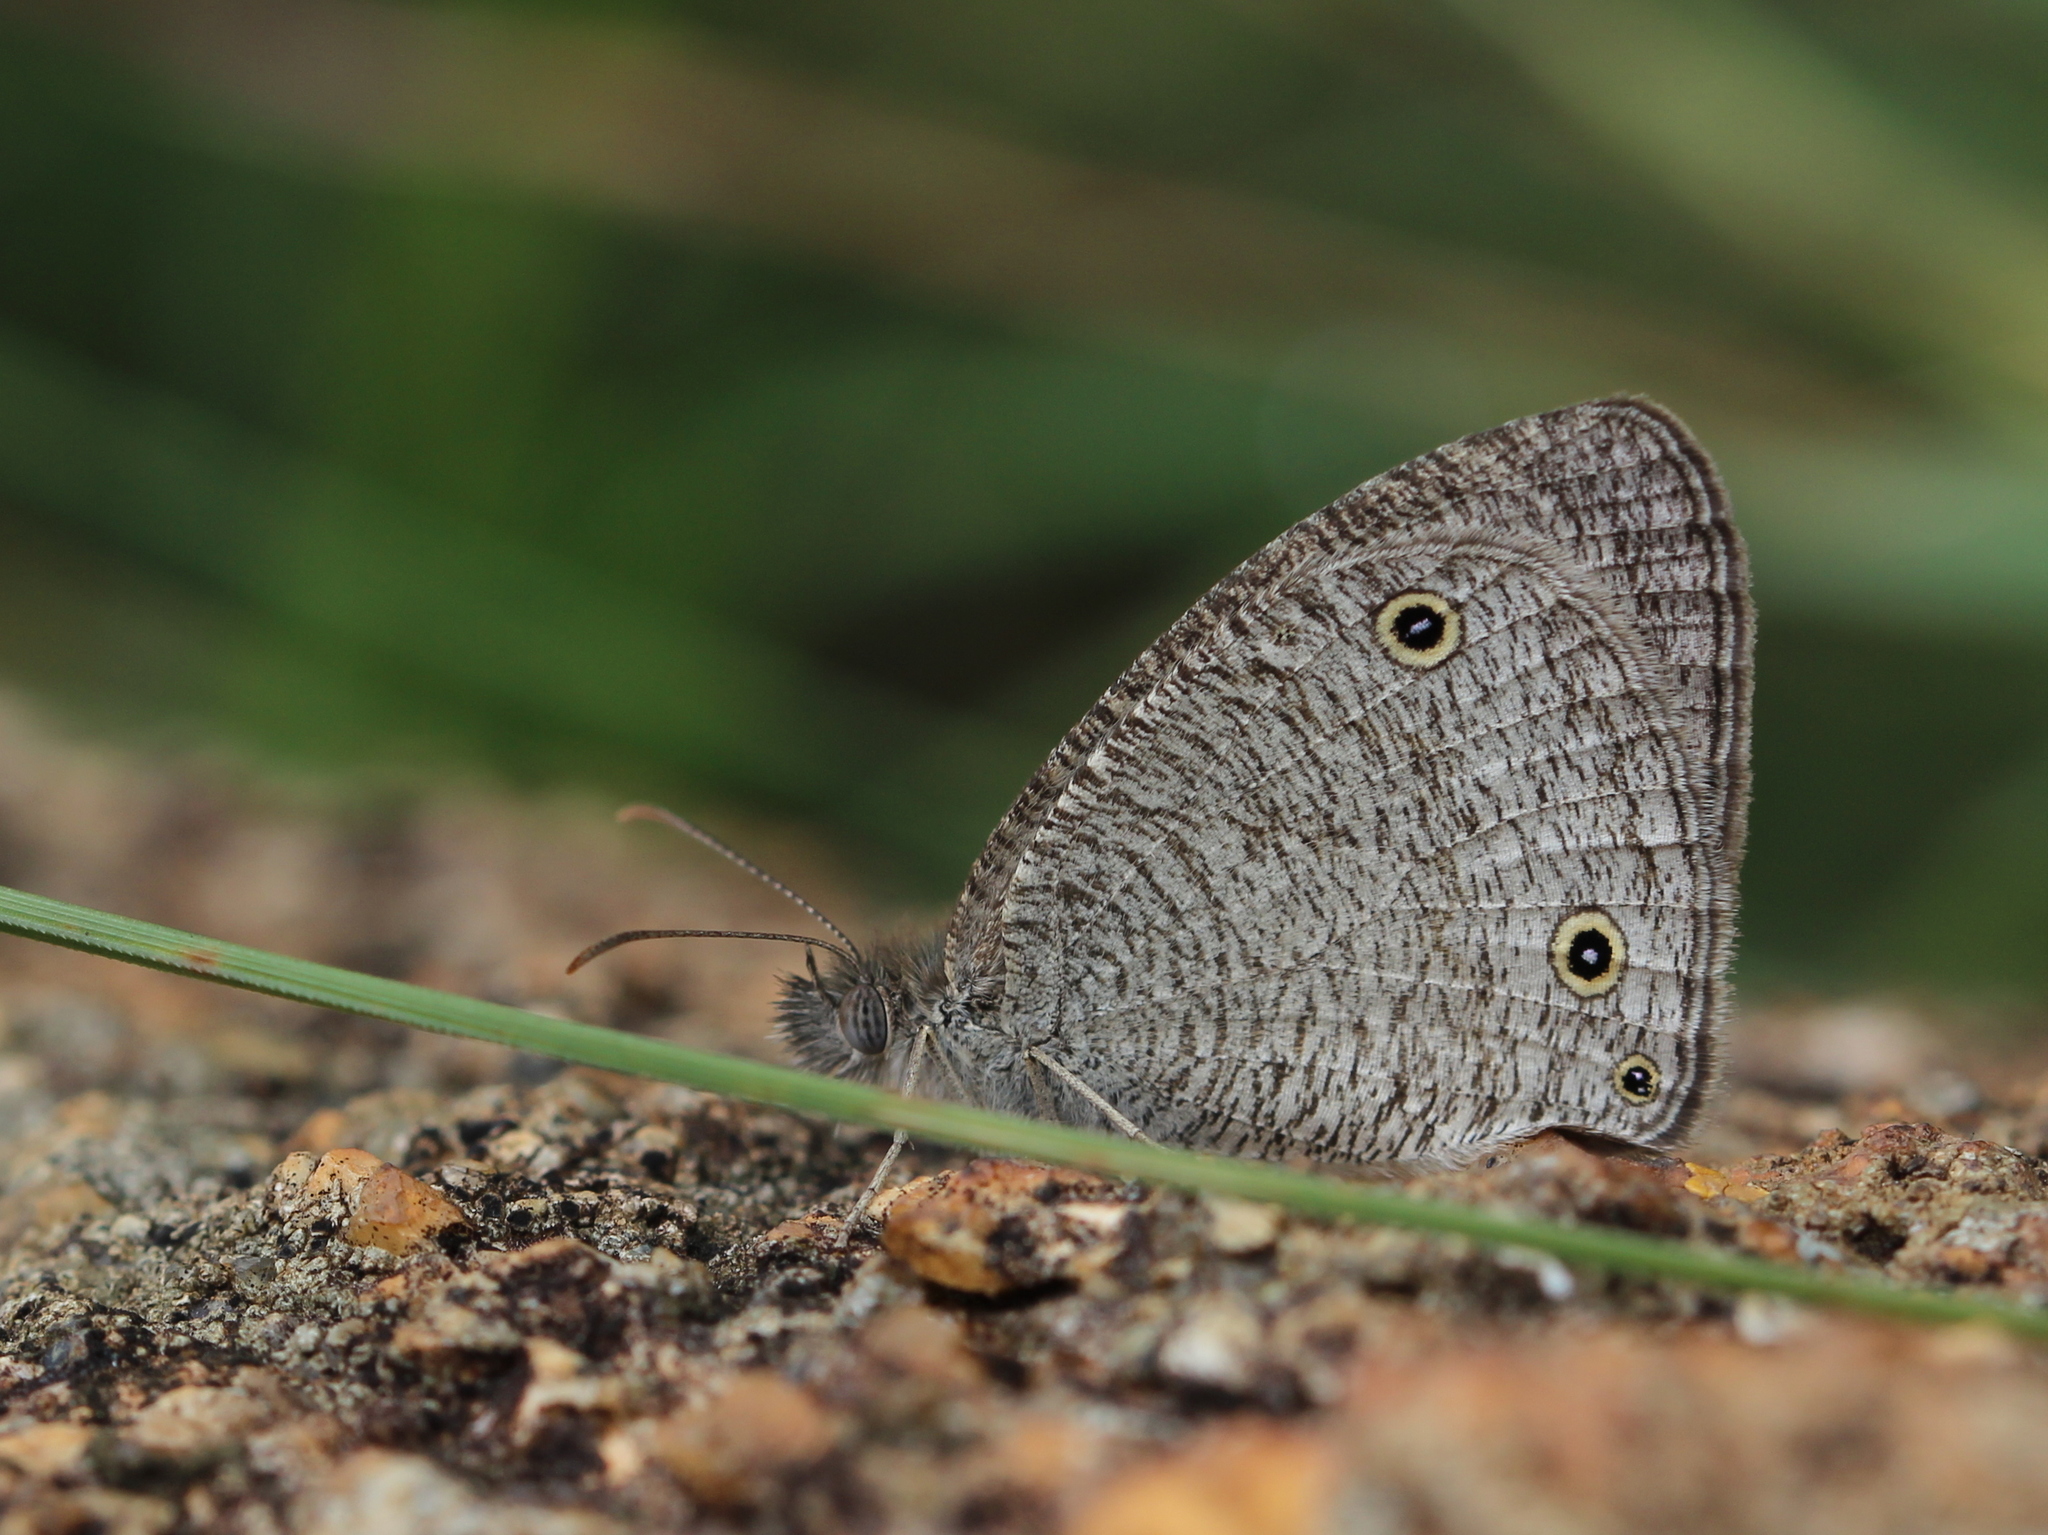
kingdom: Animalia
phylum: Arthropoda
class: Insecta
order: Lepidoptera
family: Nymphalidae
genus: Ypthima
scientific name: Ypthima asterope
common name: African ringlet
